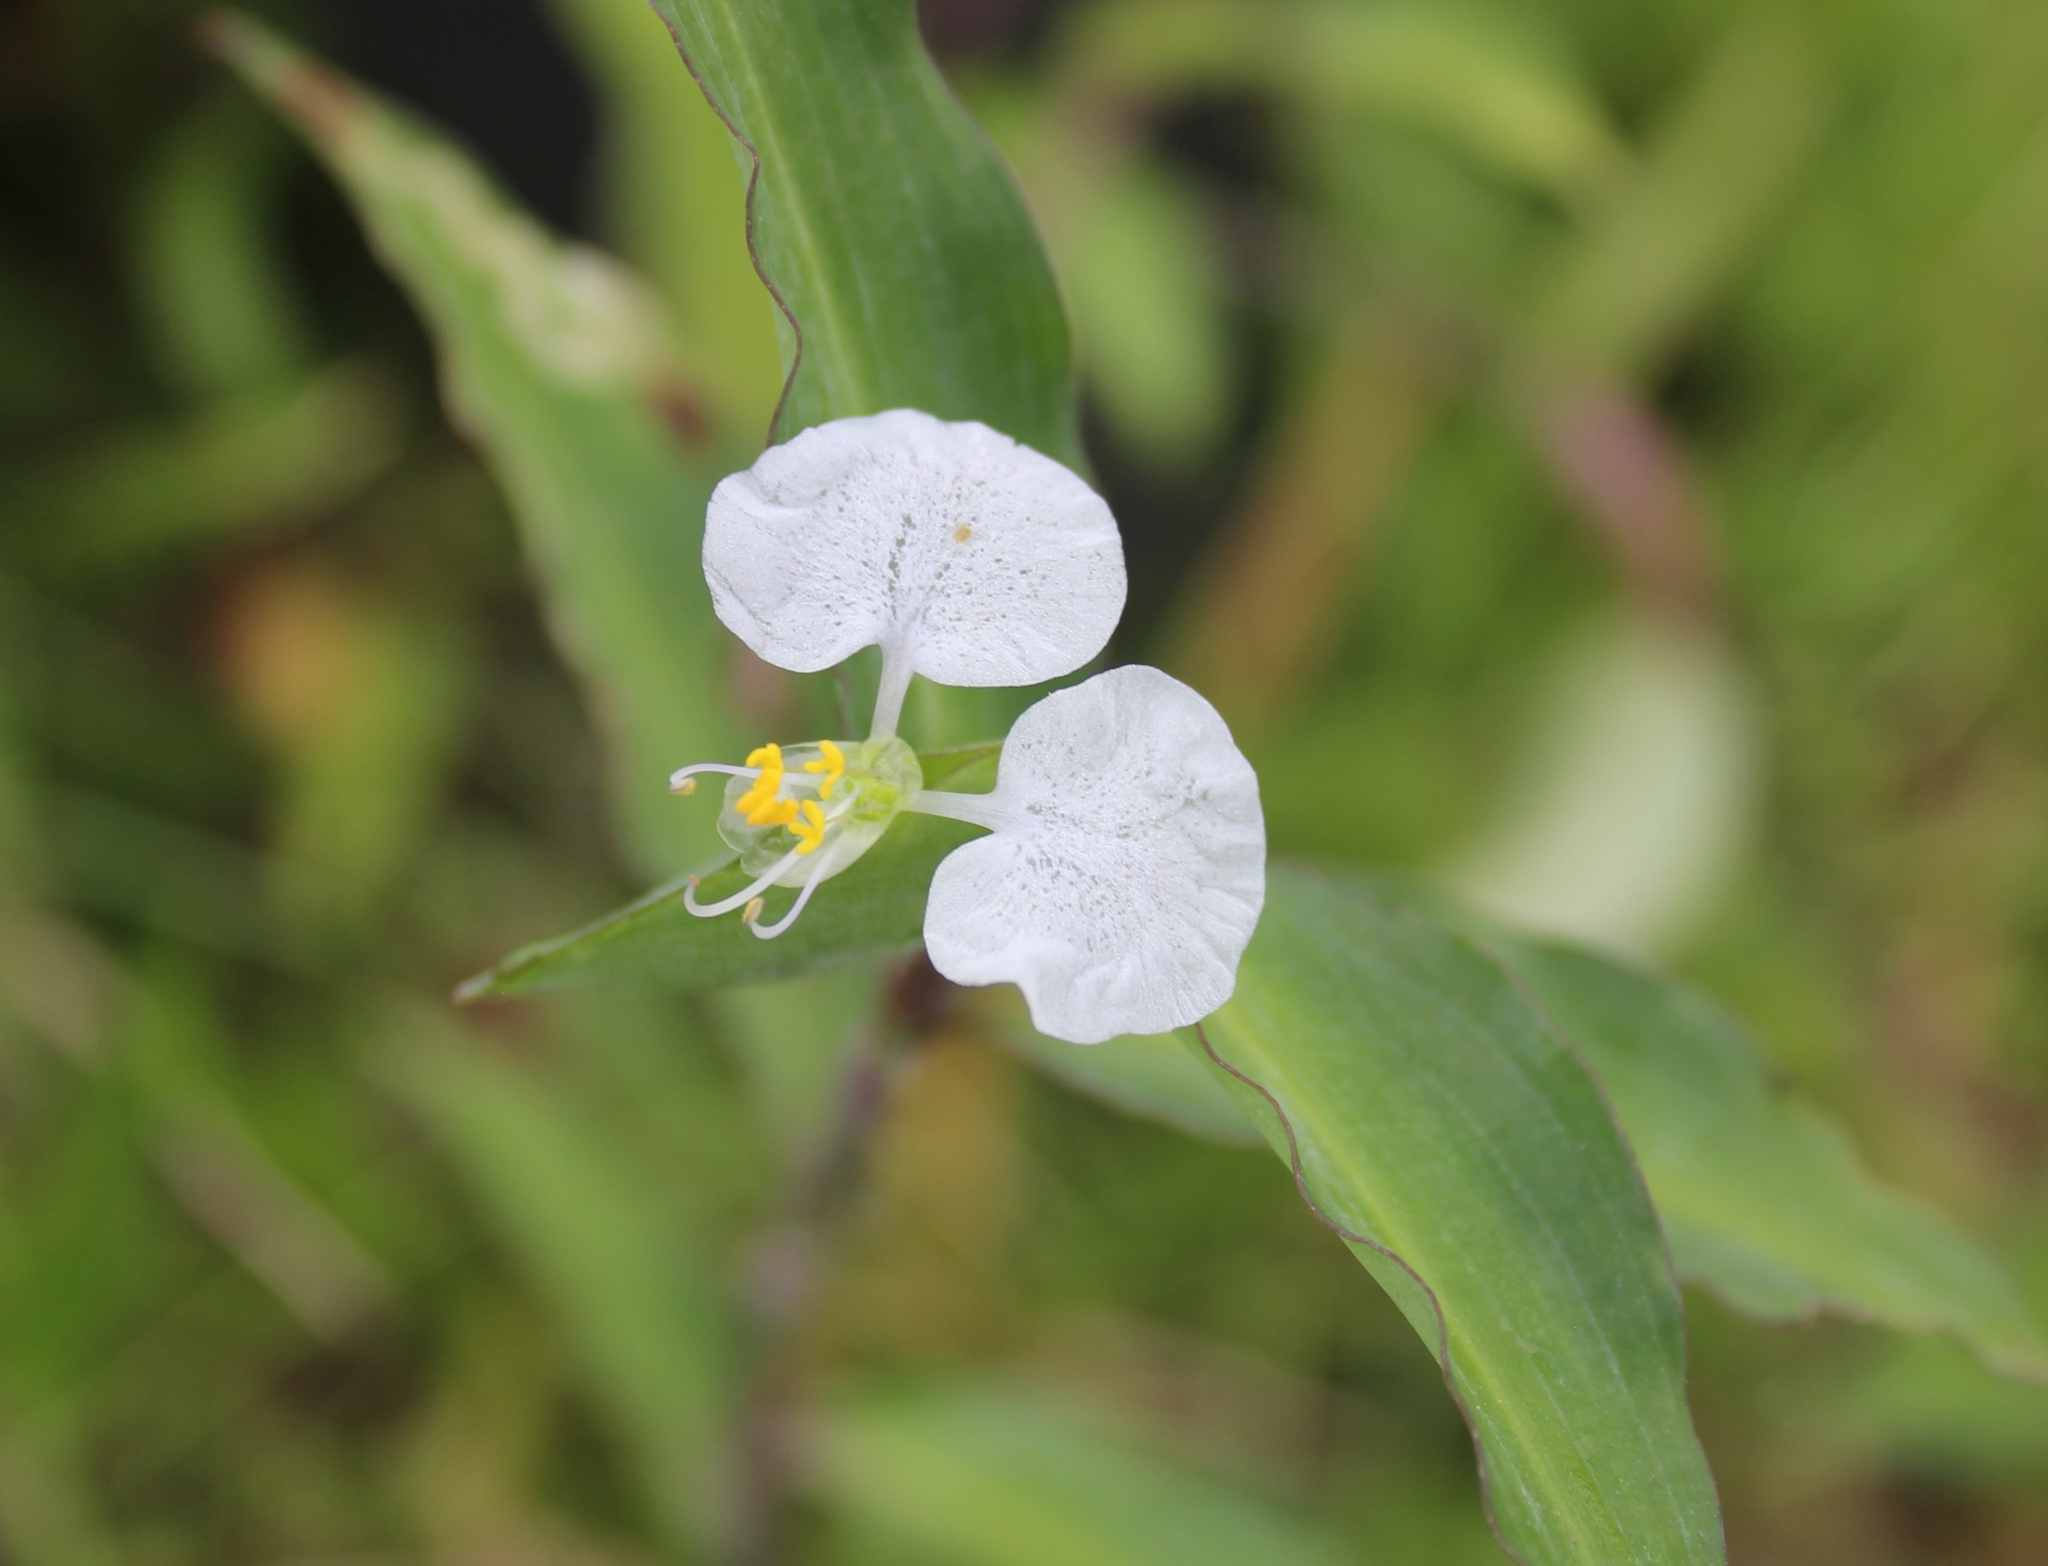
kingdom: Plantae
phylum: Tracheophyta
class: Liliopsida
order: Commelinales
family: Commelinaceae
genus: Commelina
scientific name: Commelina erecta
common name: Blousel blommetjie
